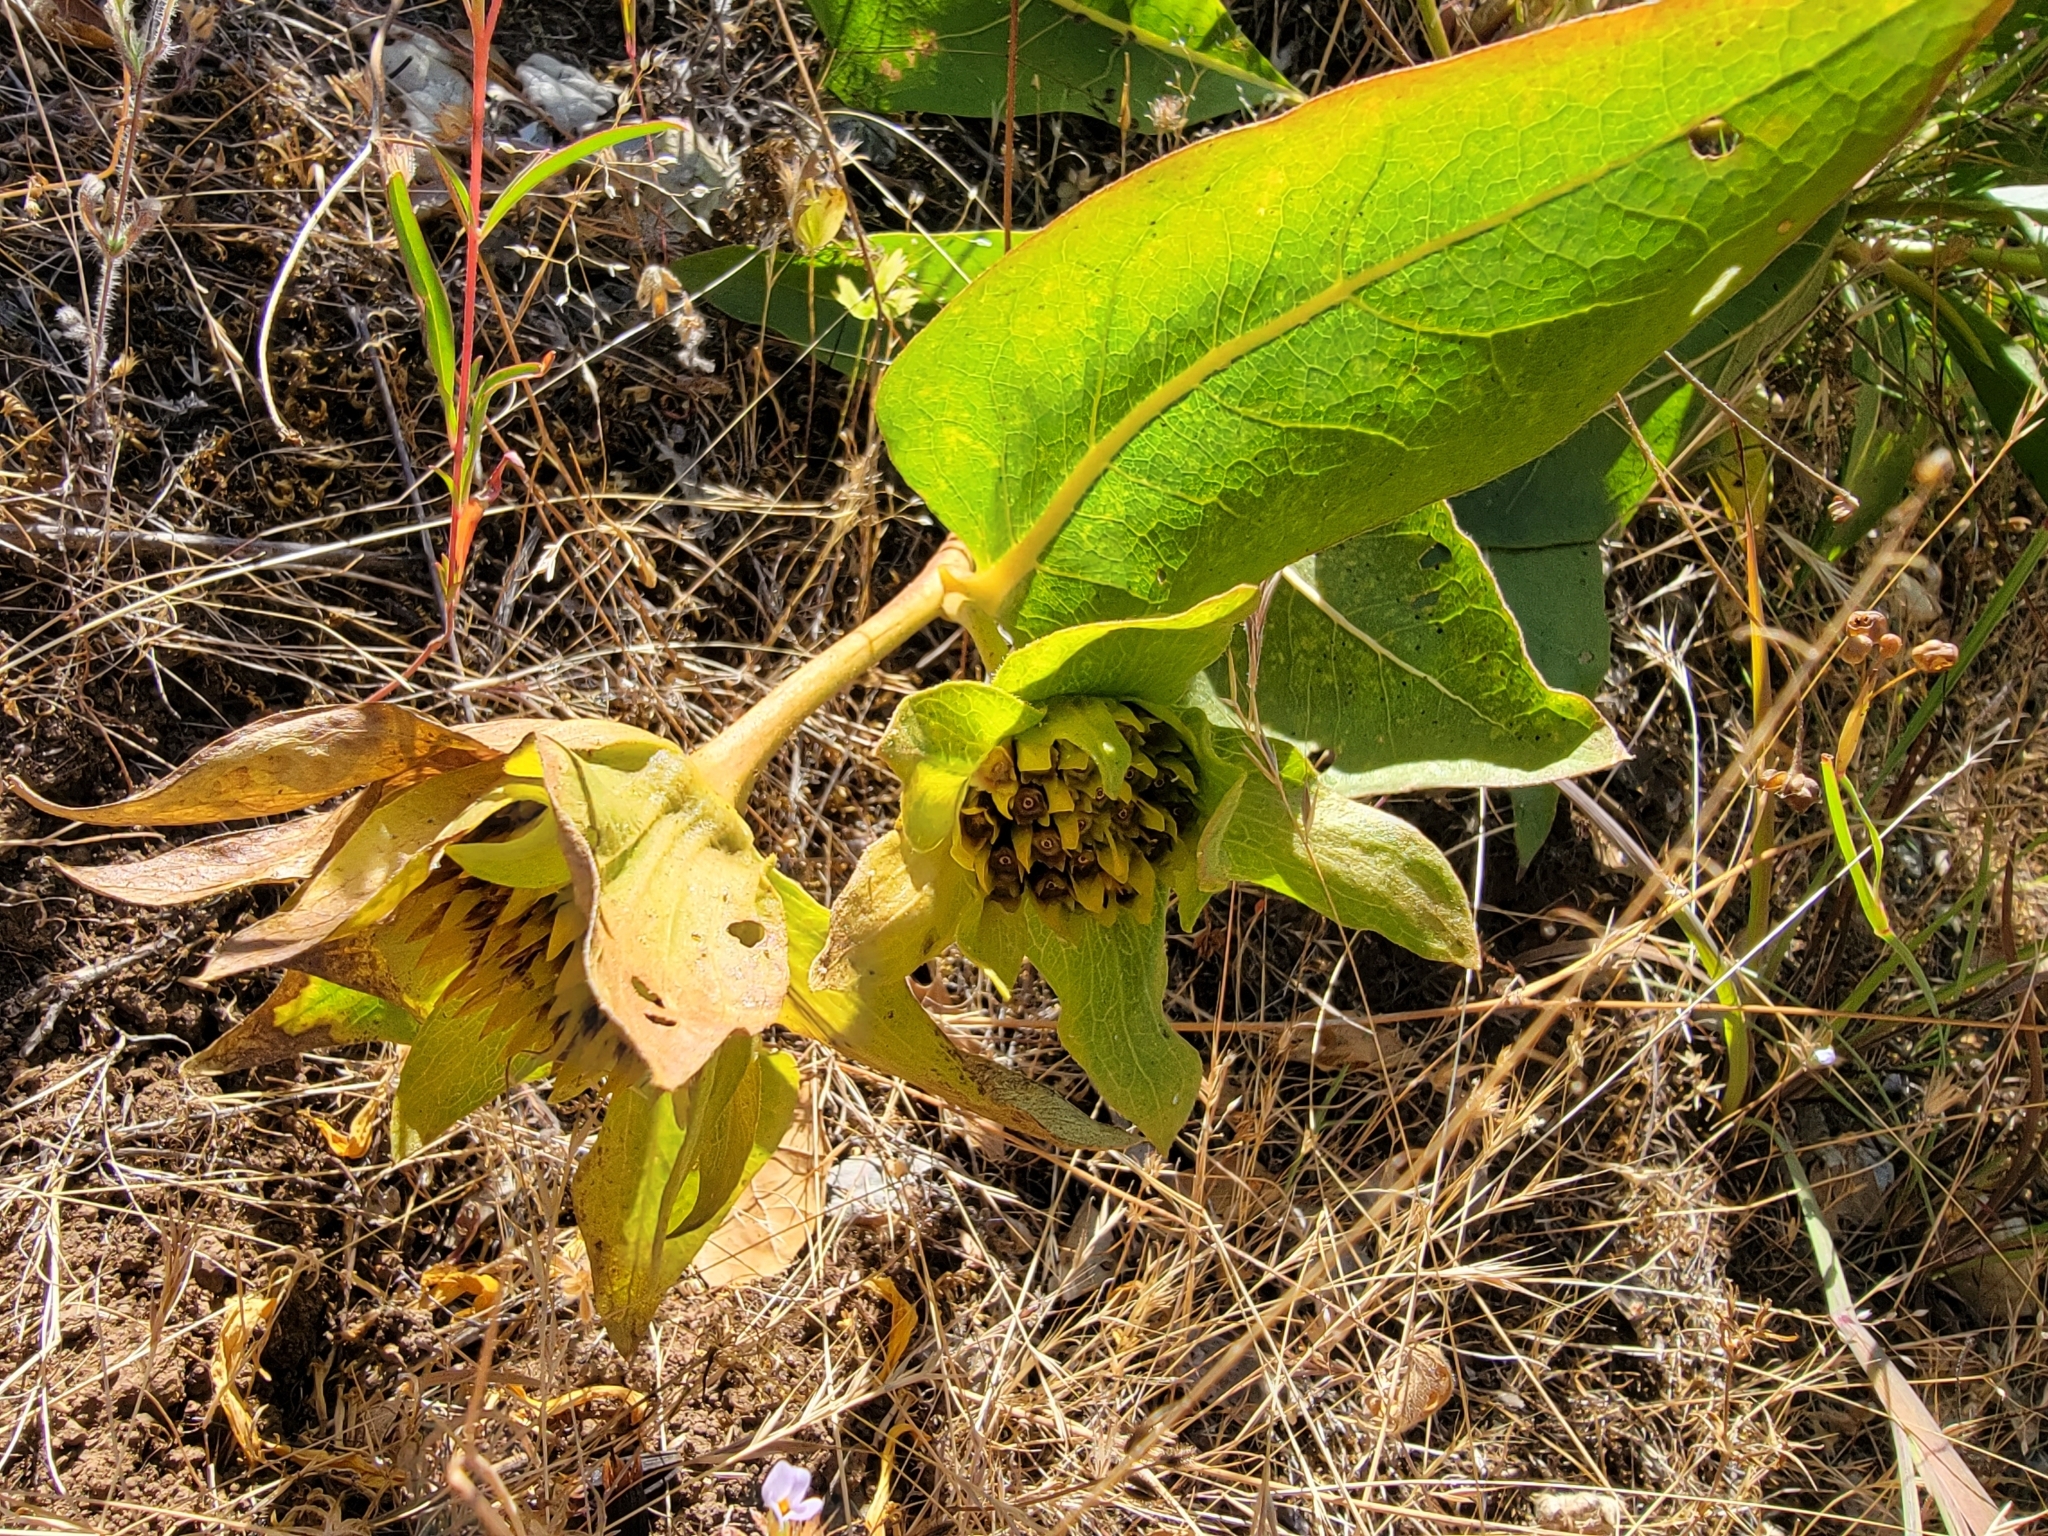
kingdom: Plantae
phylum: Tracheophyta
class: Magnoliopsida
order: Asterales
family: Asteraceae
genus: Wyethia
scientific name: Wyethia glabra
